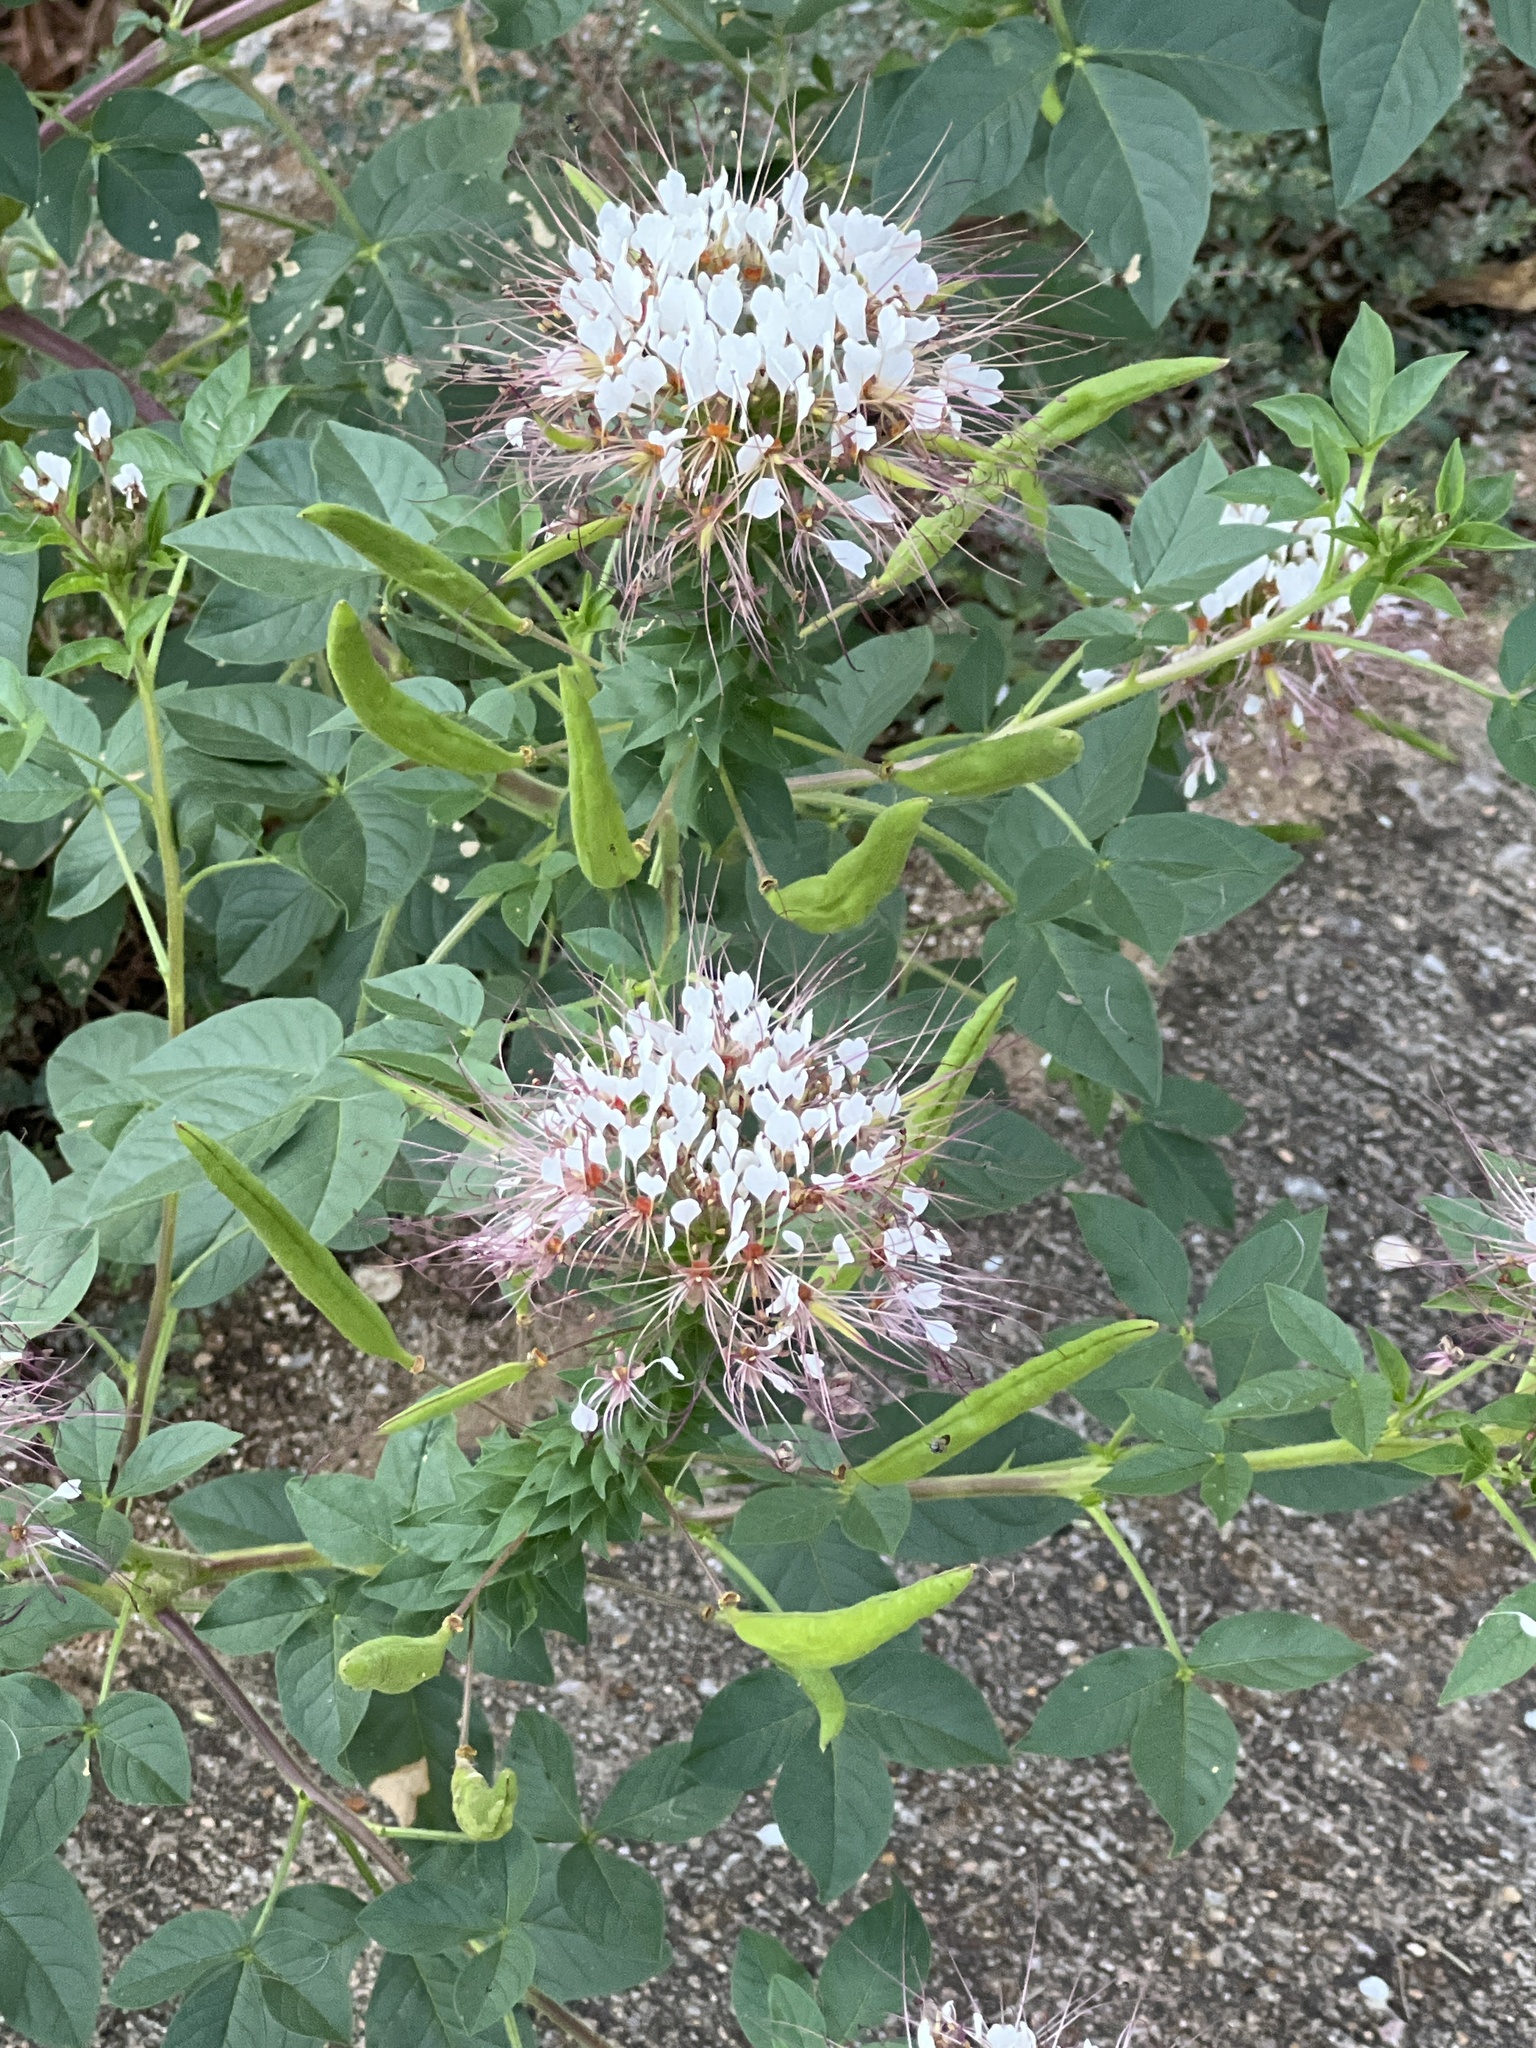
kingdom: Plantae
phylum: Tracheophyta
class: Magnoliopsida
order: Brassicales
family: Cleomaceae
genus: Polanisia
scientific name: Polanisia dodecandra
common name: Clammyweed
